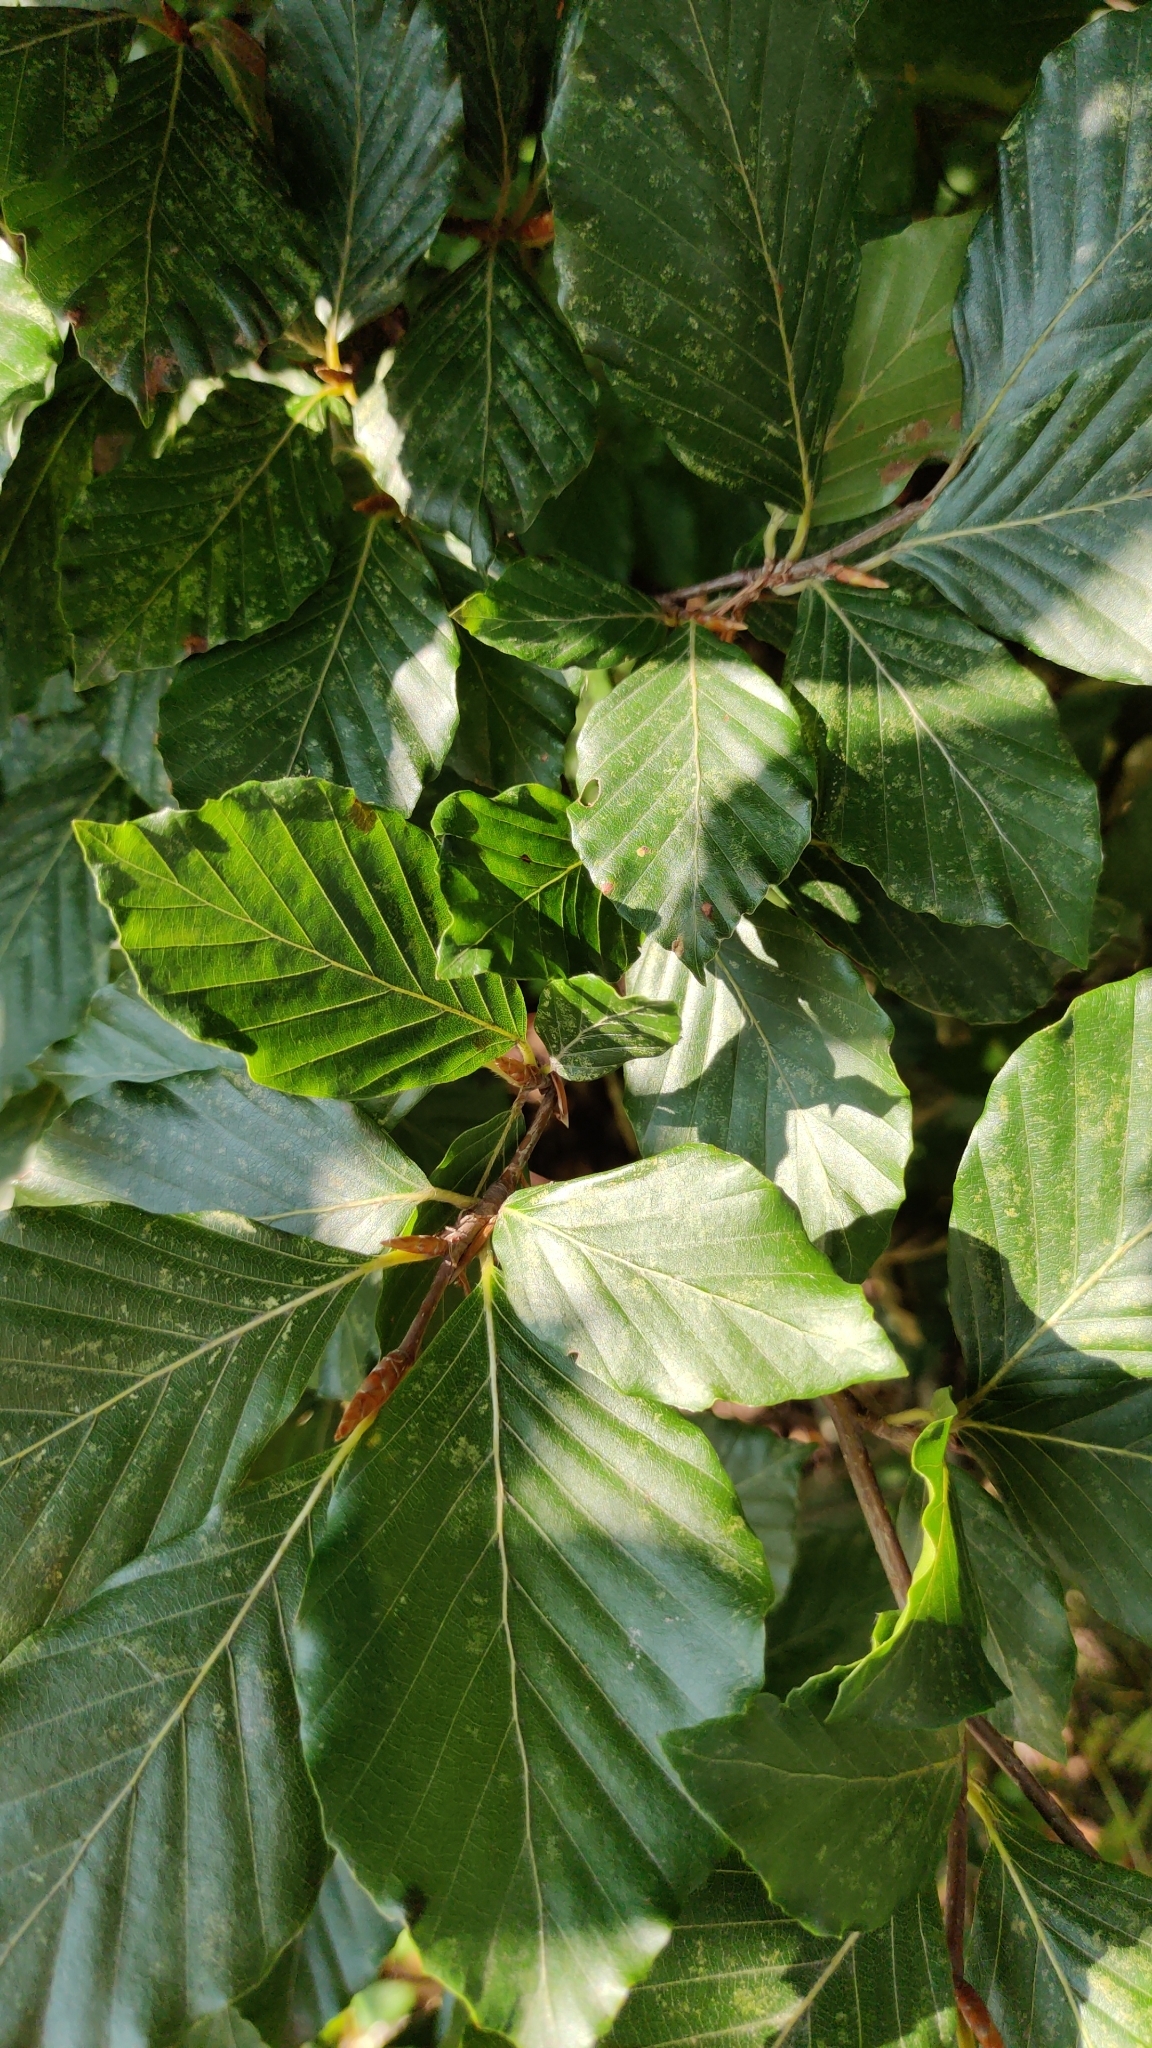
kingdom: Plantae
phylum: Tracheophyta
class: Magnoliopsida
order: Fagales
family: Fagaceae
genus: Fagus
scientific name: Fagus sylvatica
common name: Beech
